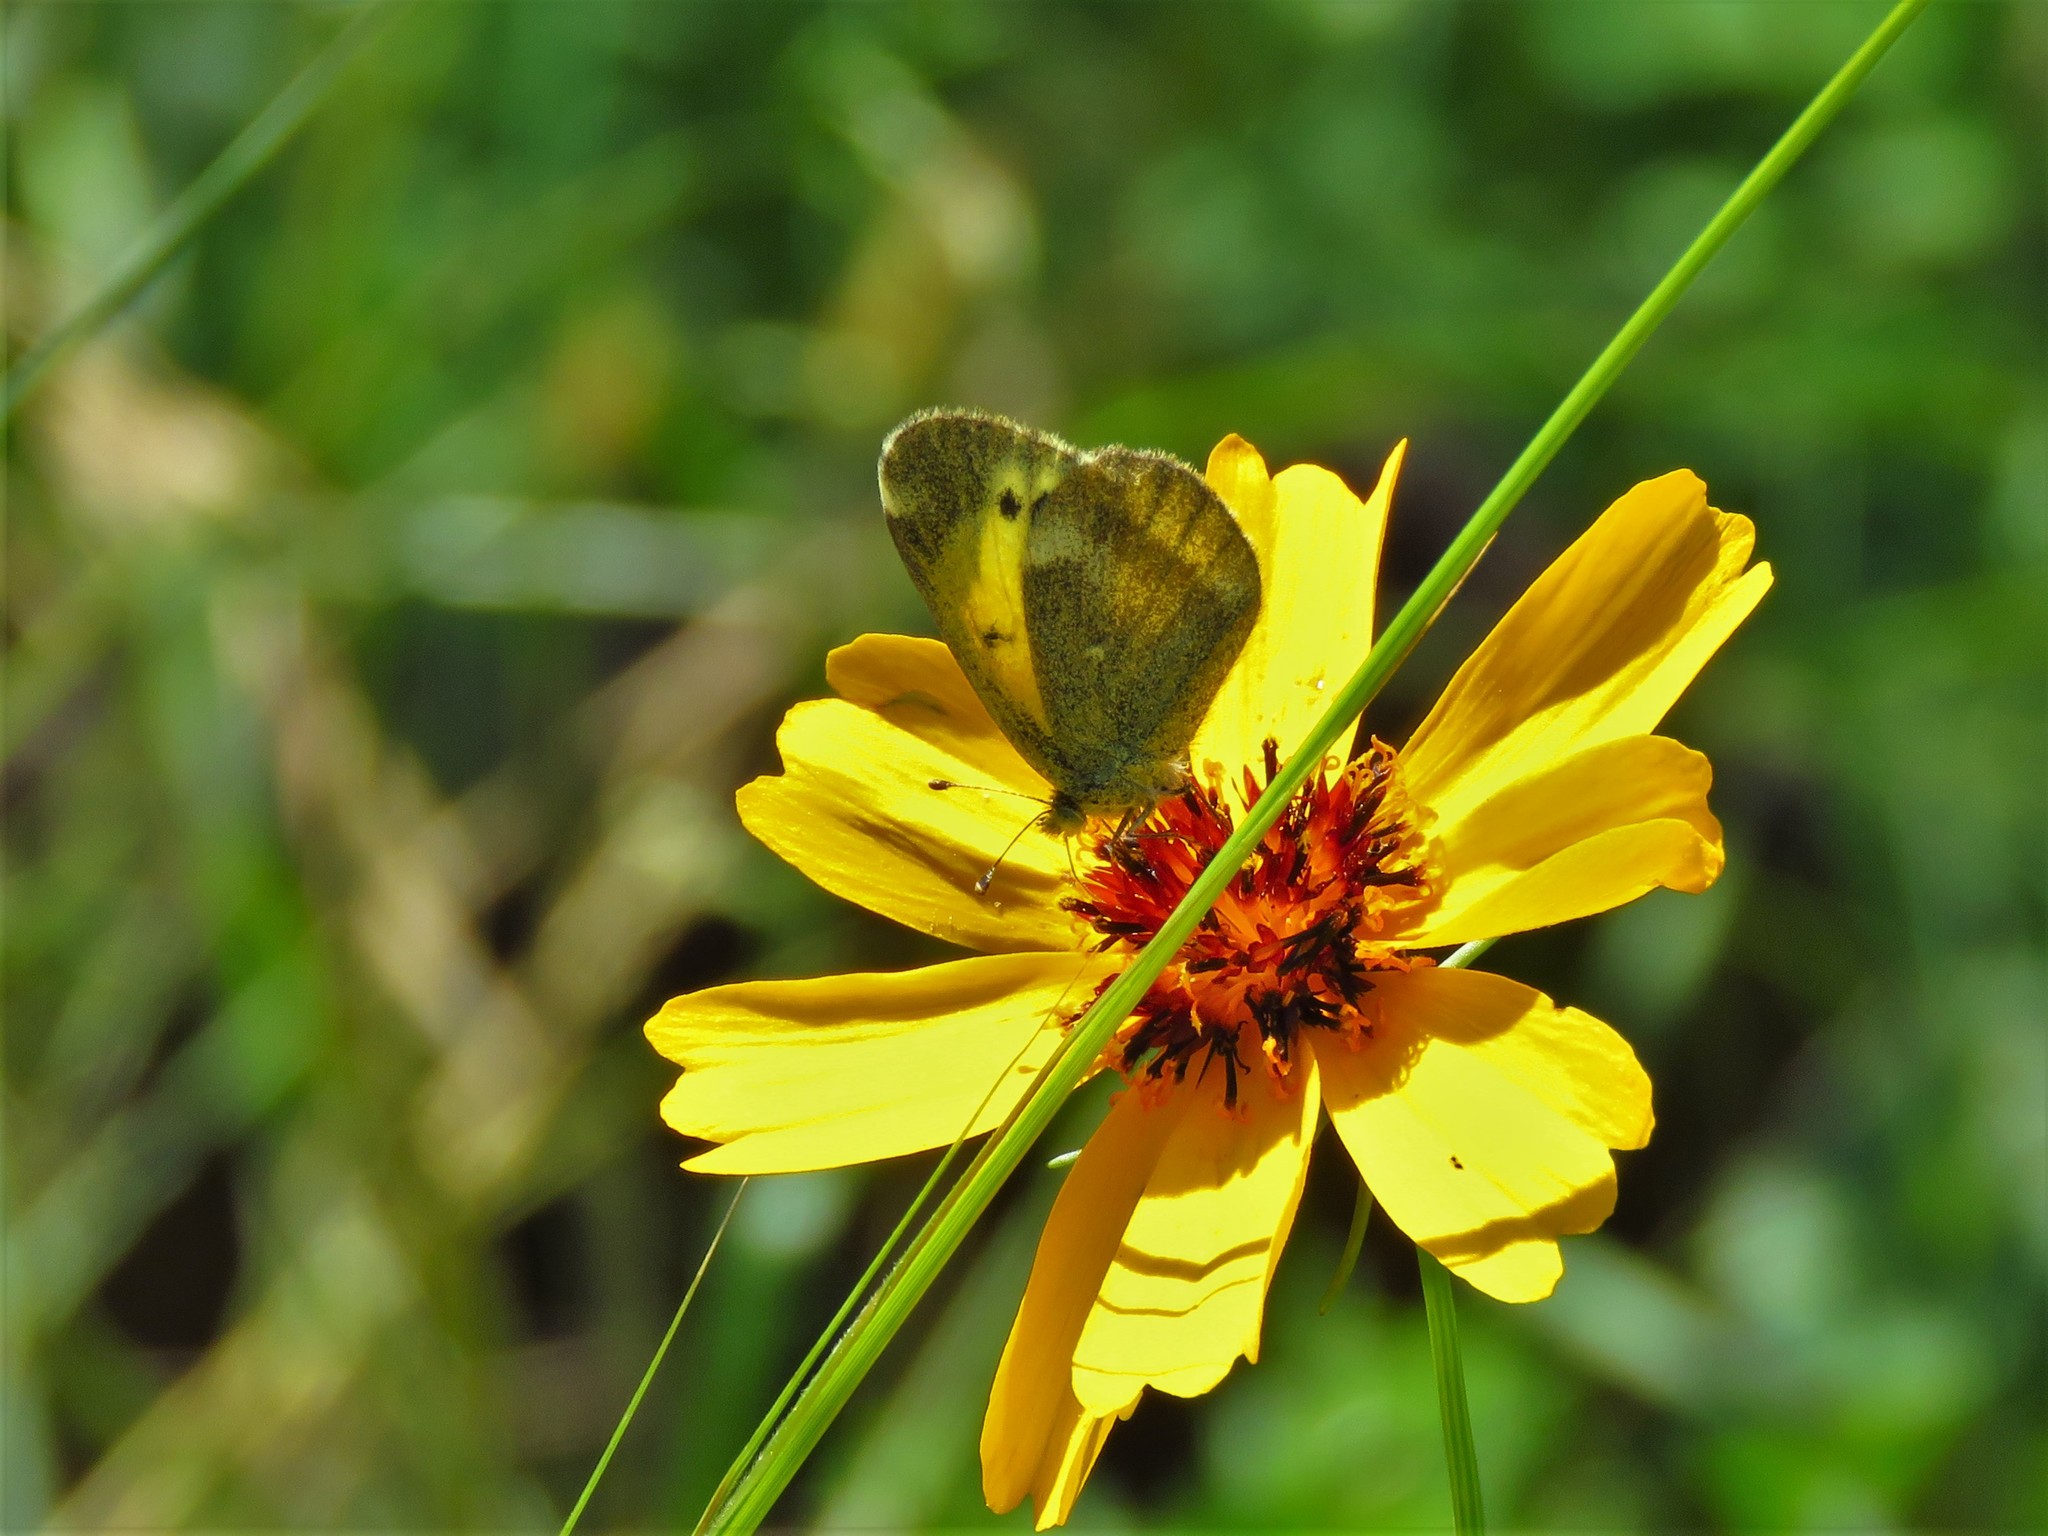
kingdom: Animalia
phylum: Arthropoda
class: Insecta
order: Lepidoptera
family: Pieridae
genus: Nathalis
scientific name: Nathalis iole
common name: Dainty sulphur
